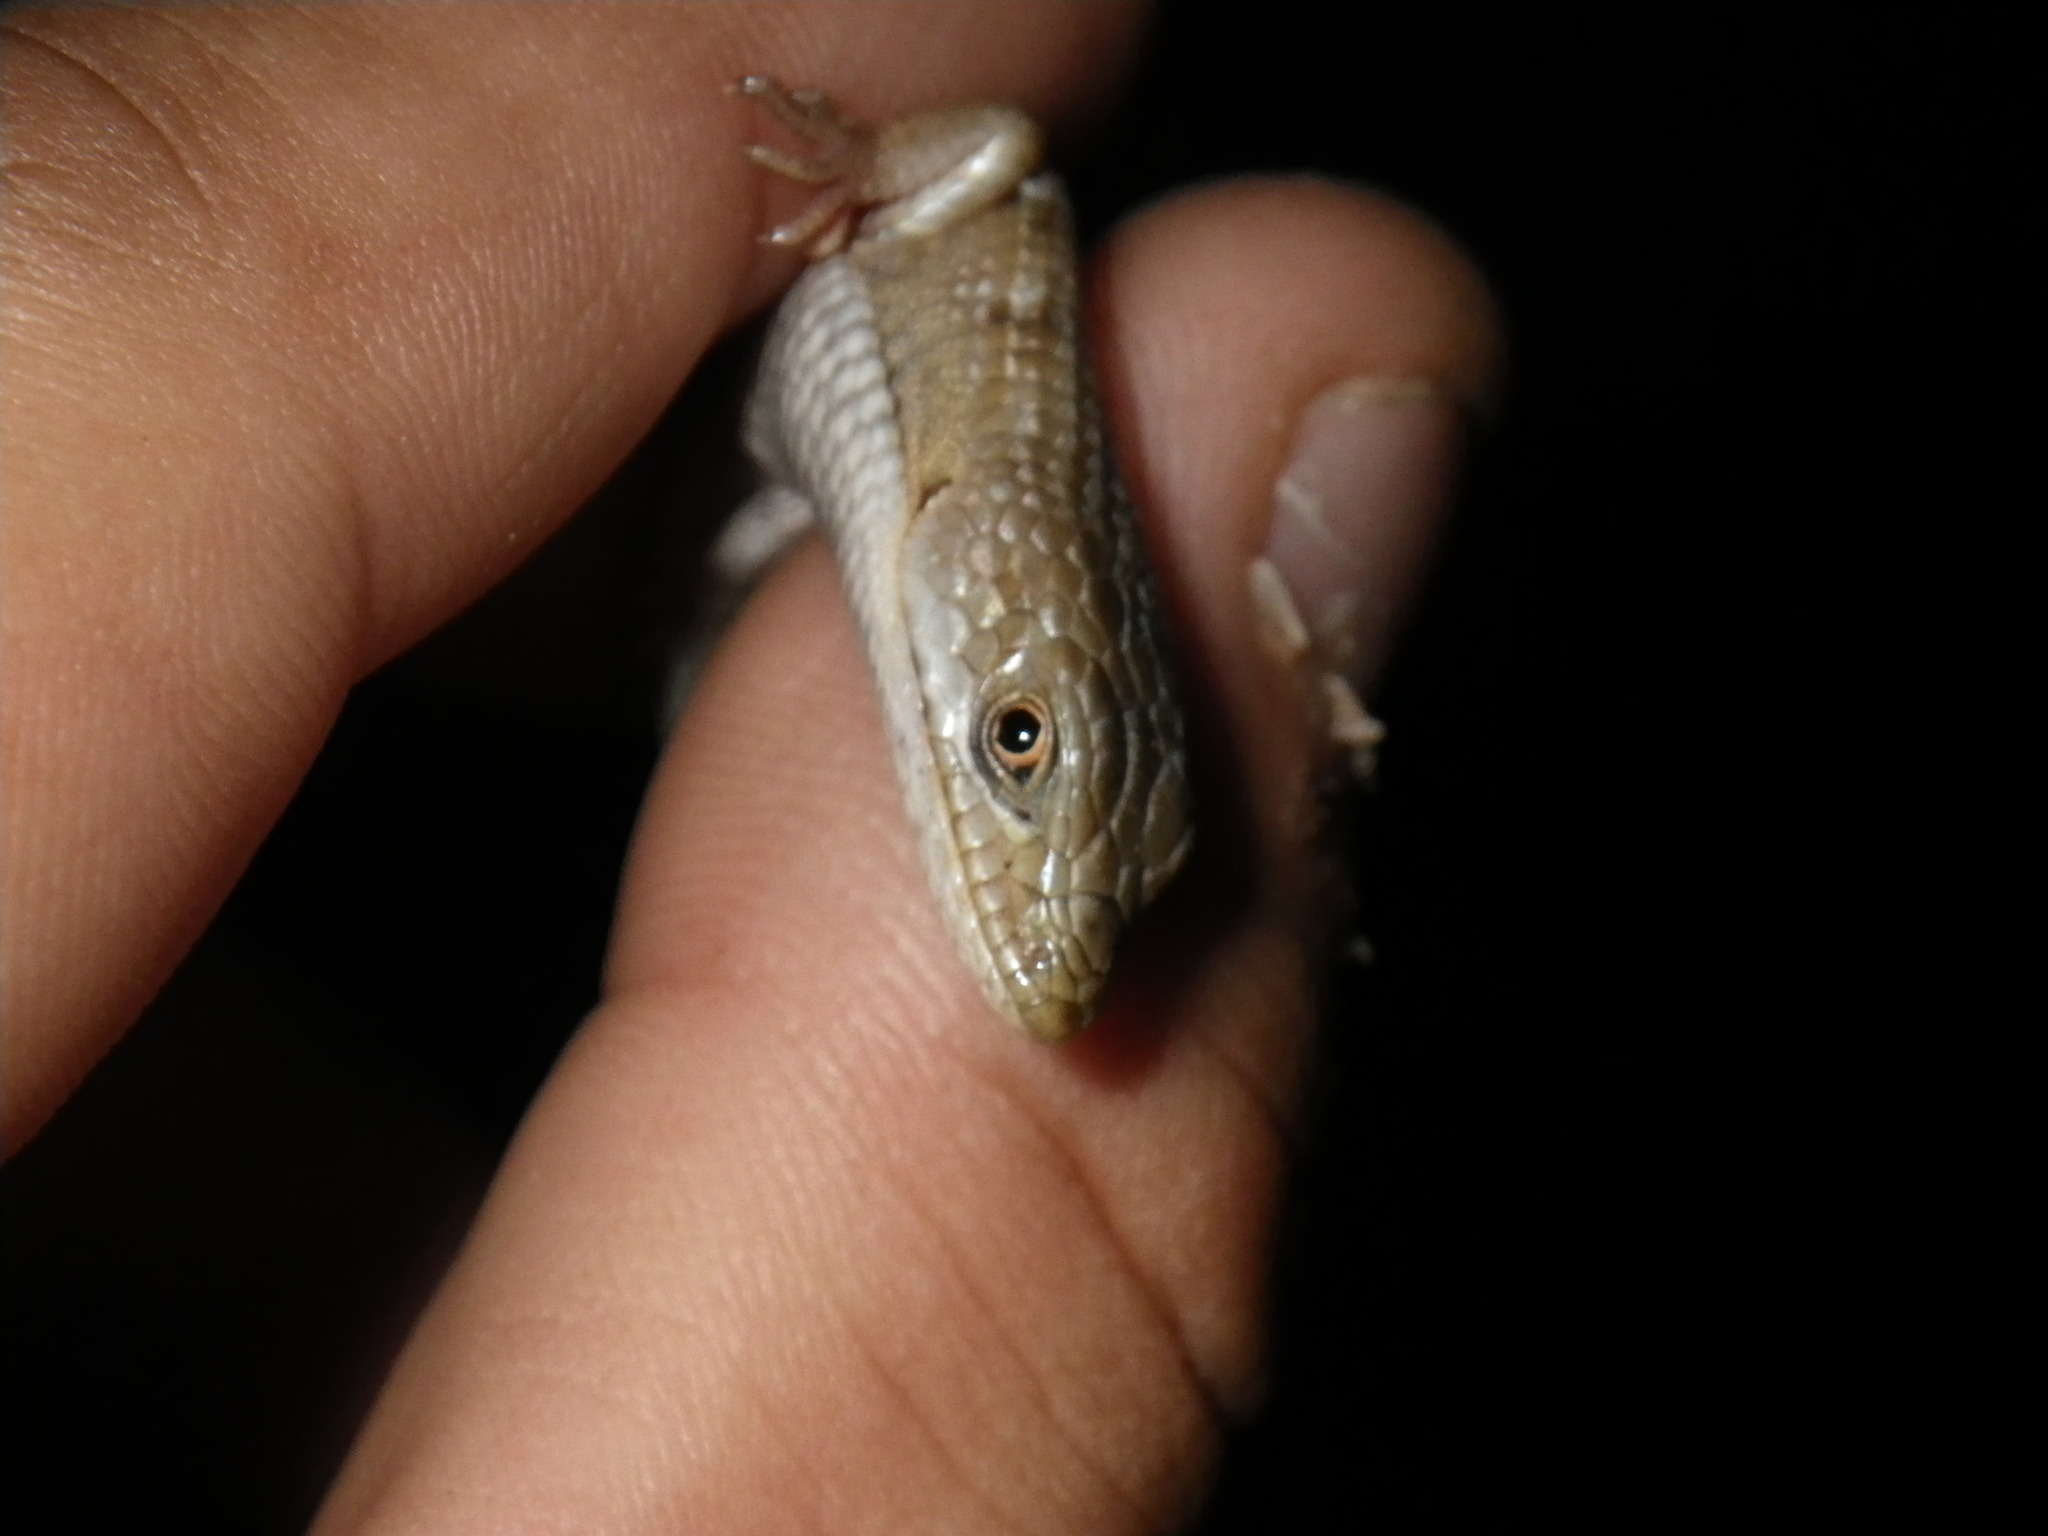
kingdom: Animalia
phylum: Chordata
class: Squamata
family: Anguidae
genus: Elgaria
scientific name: Elgaria multicarinata
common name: Southern alligator lizard
